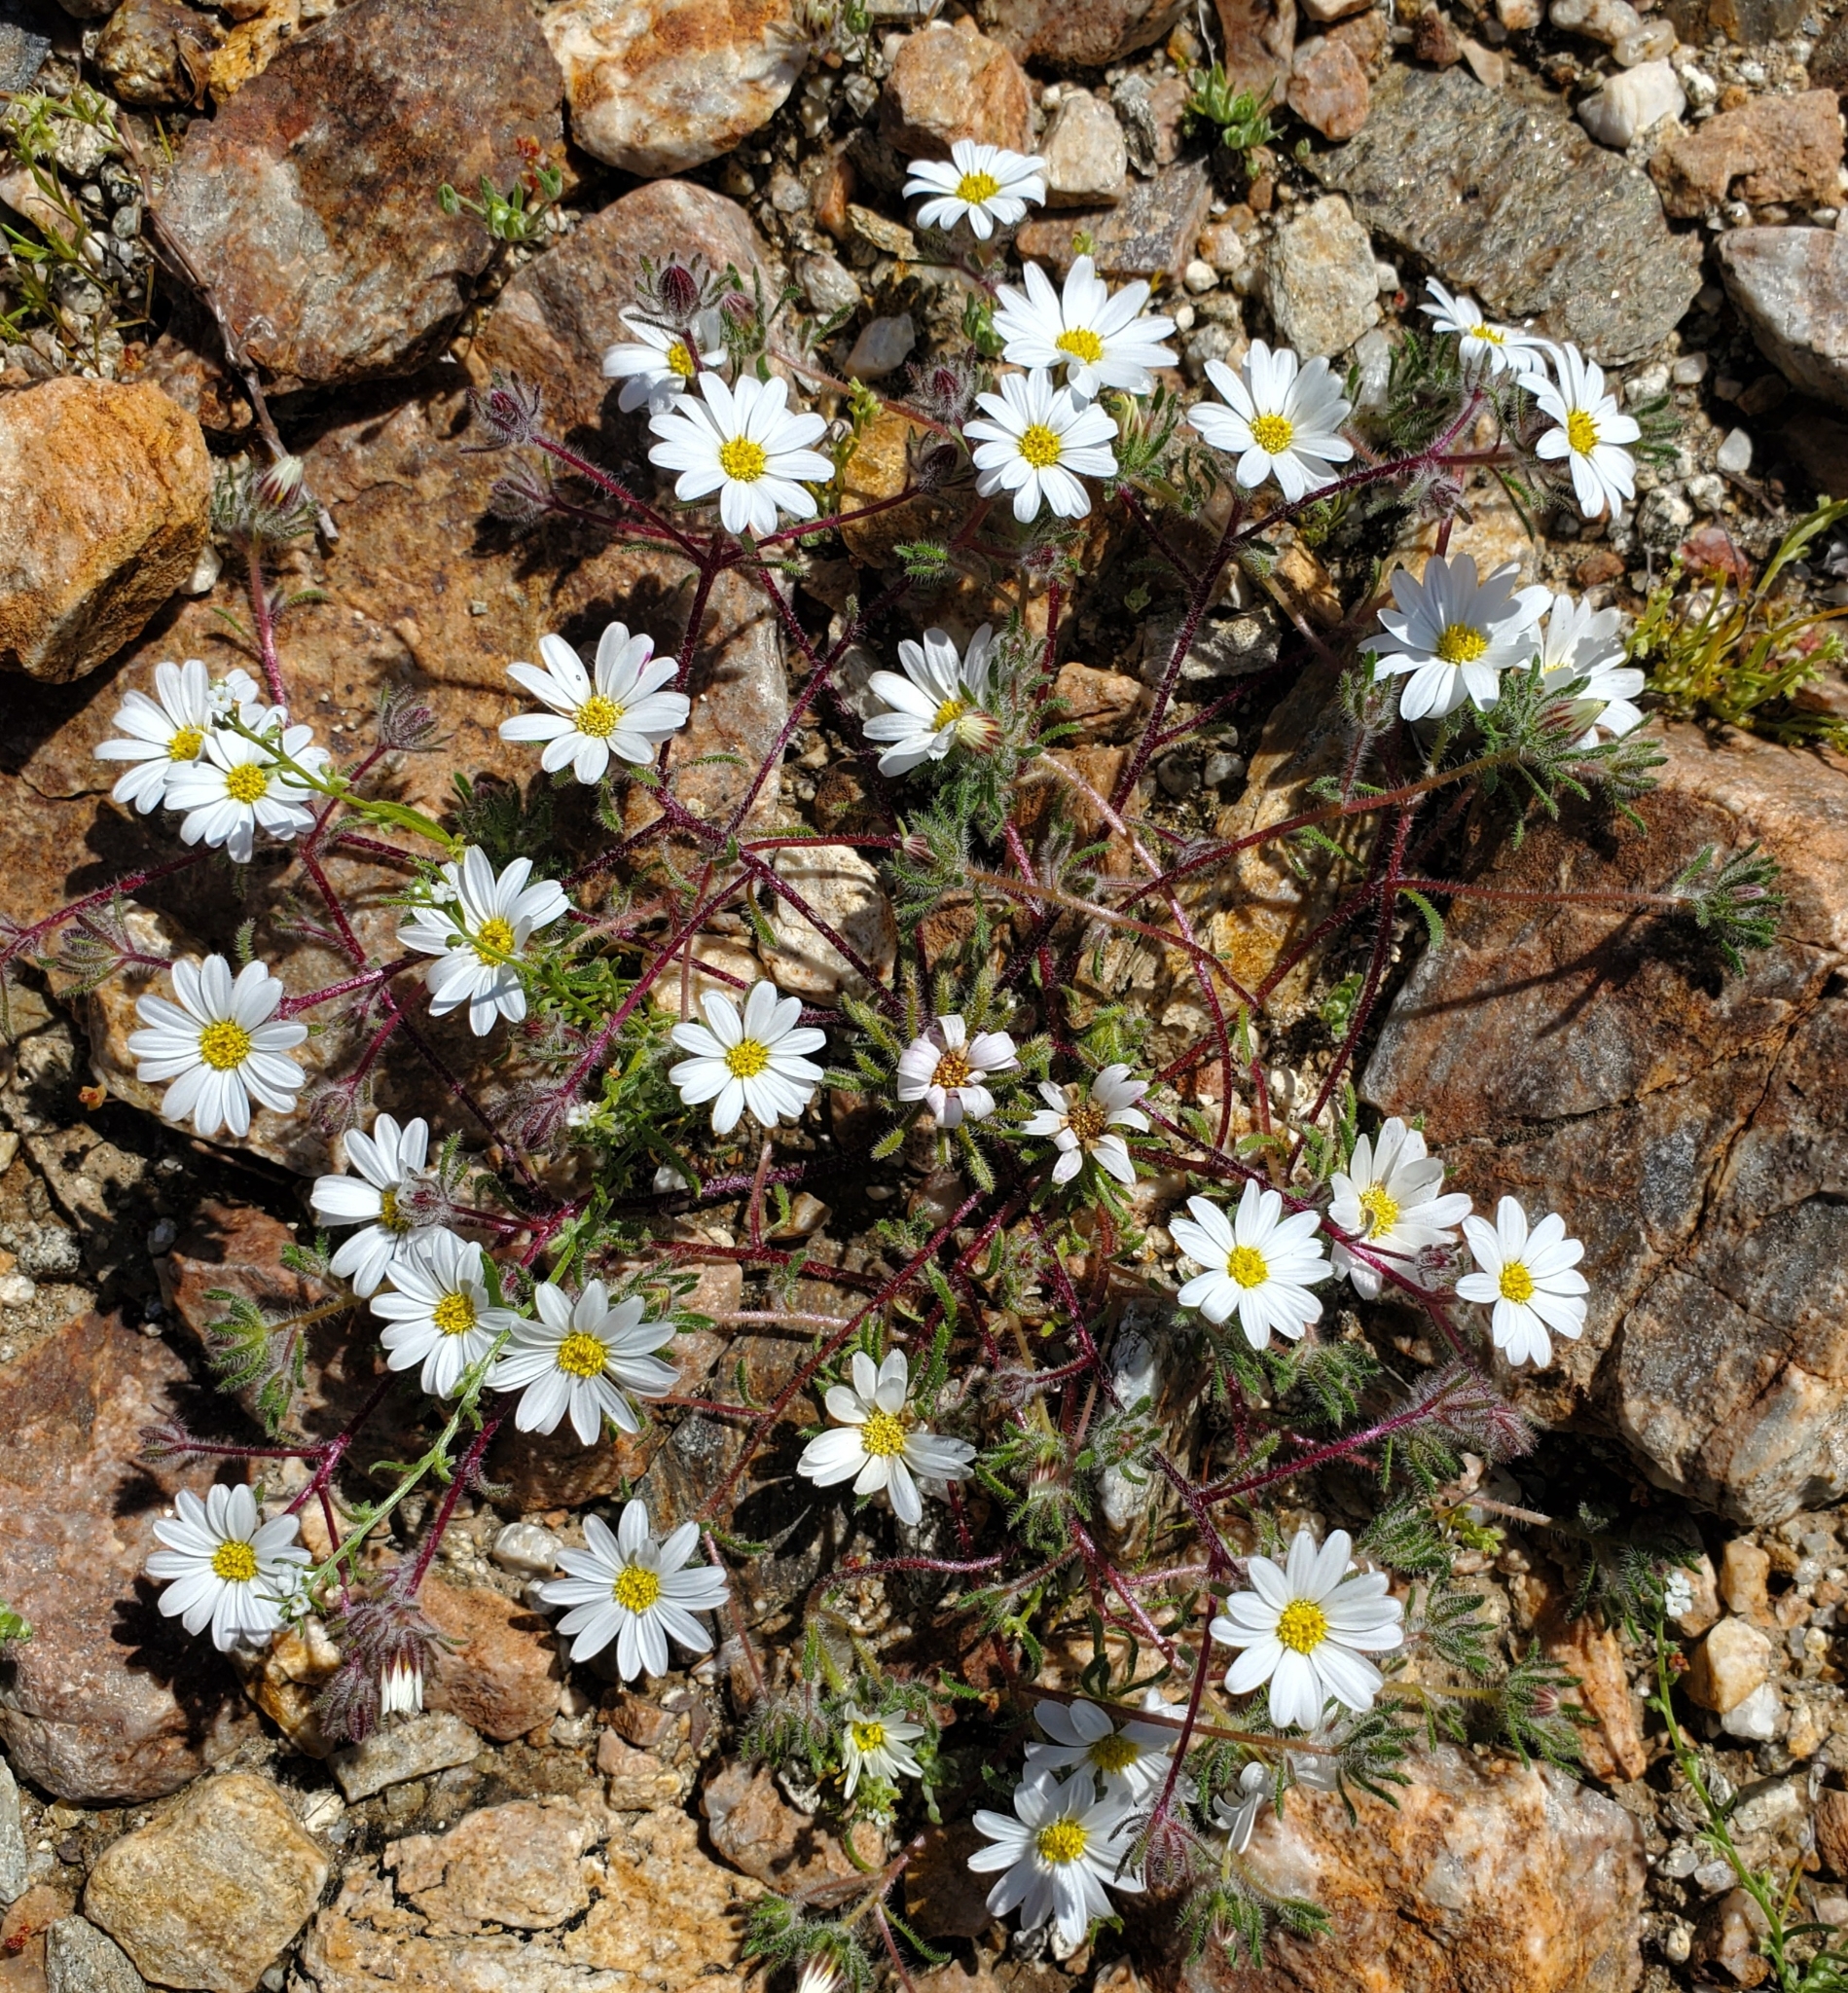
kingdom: Plantae
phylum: Tracheophyta
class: Magnoliopsida
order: Asterales
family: Asteraceae
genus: Monoptilon
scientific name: Monoptilon bellioides
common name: Bristly desertstar
